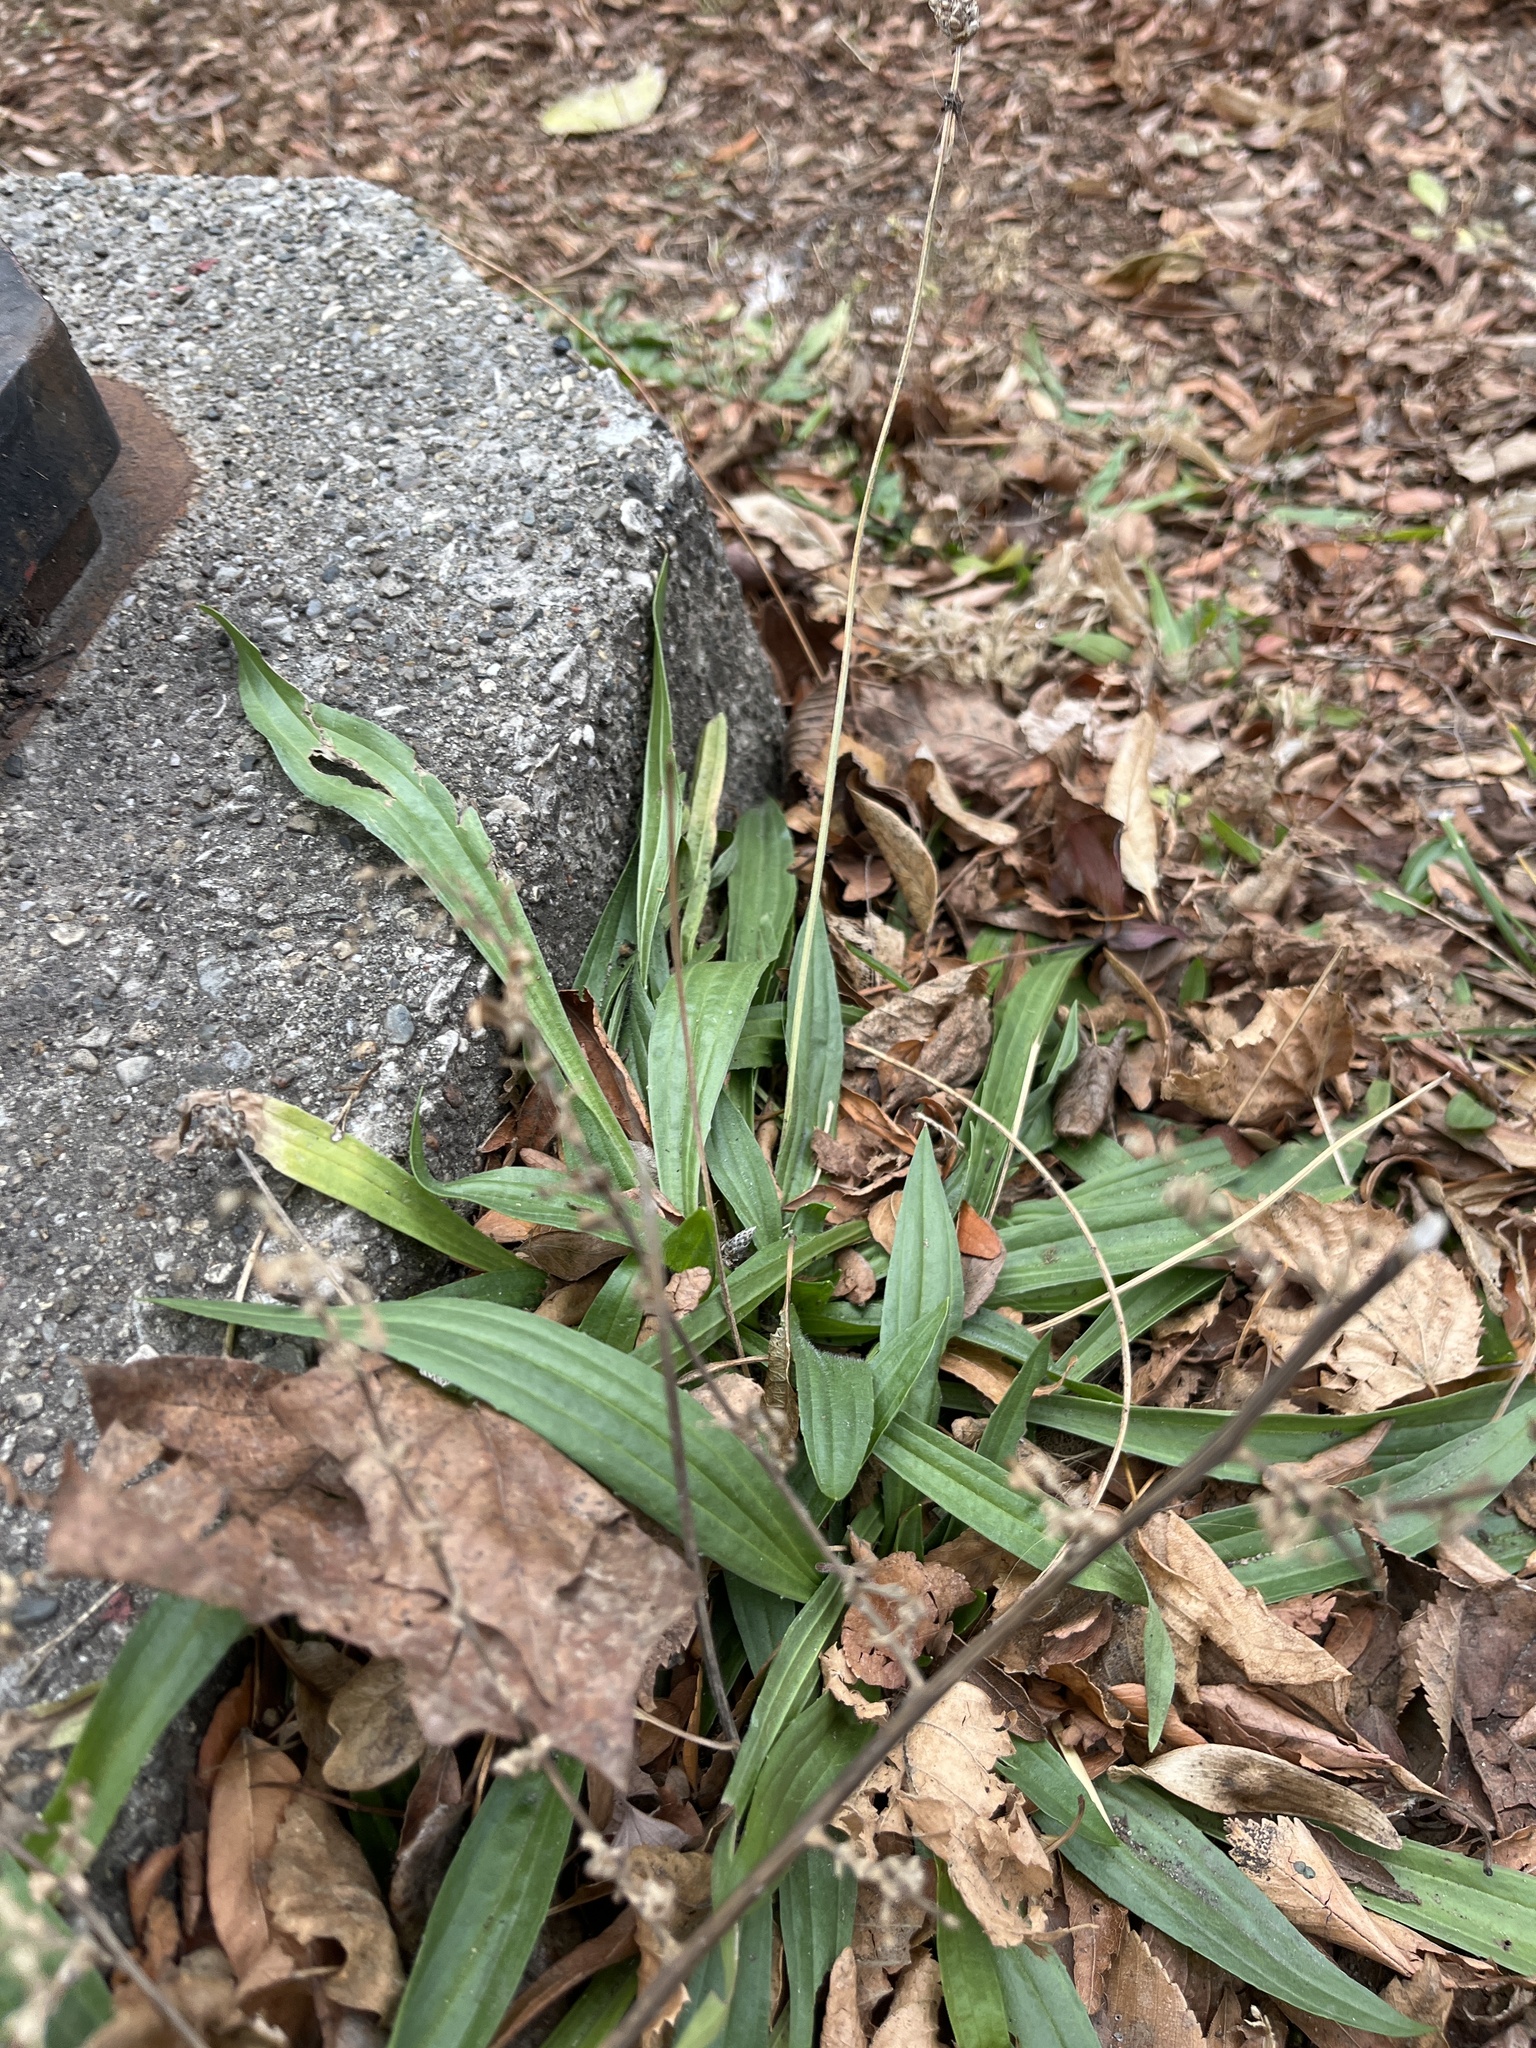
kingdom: Plantae
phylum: Tracheophyta
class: Magnoliopsida
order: Lamiales
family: Plantaginaceae
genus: Plantago
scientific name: Plantago lanceolata
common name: Ribwort plantain
